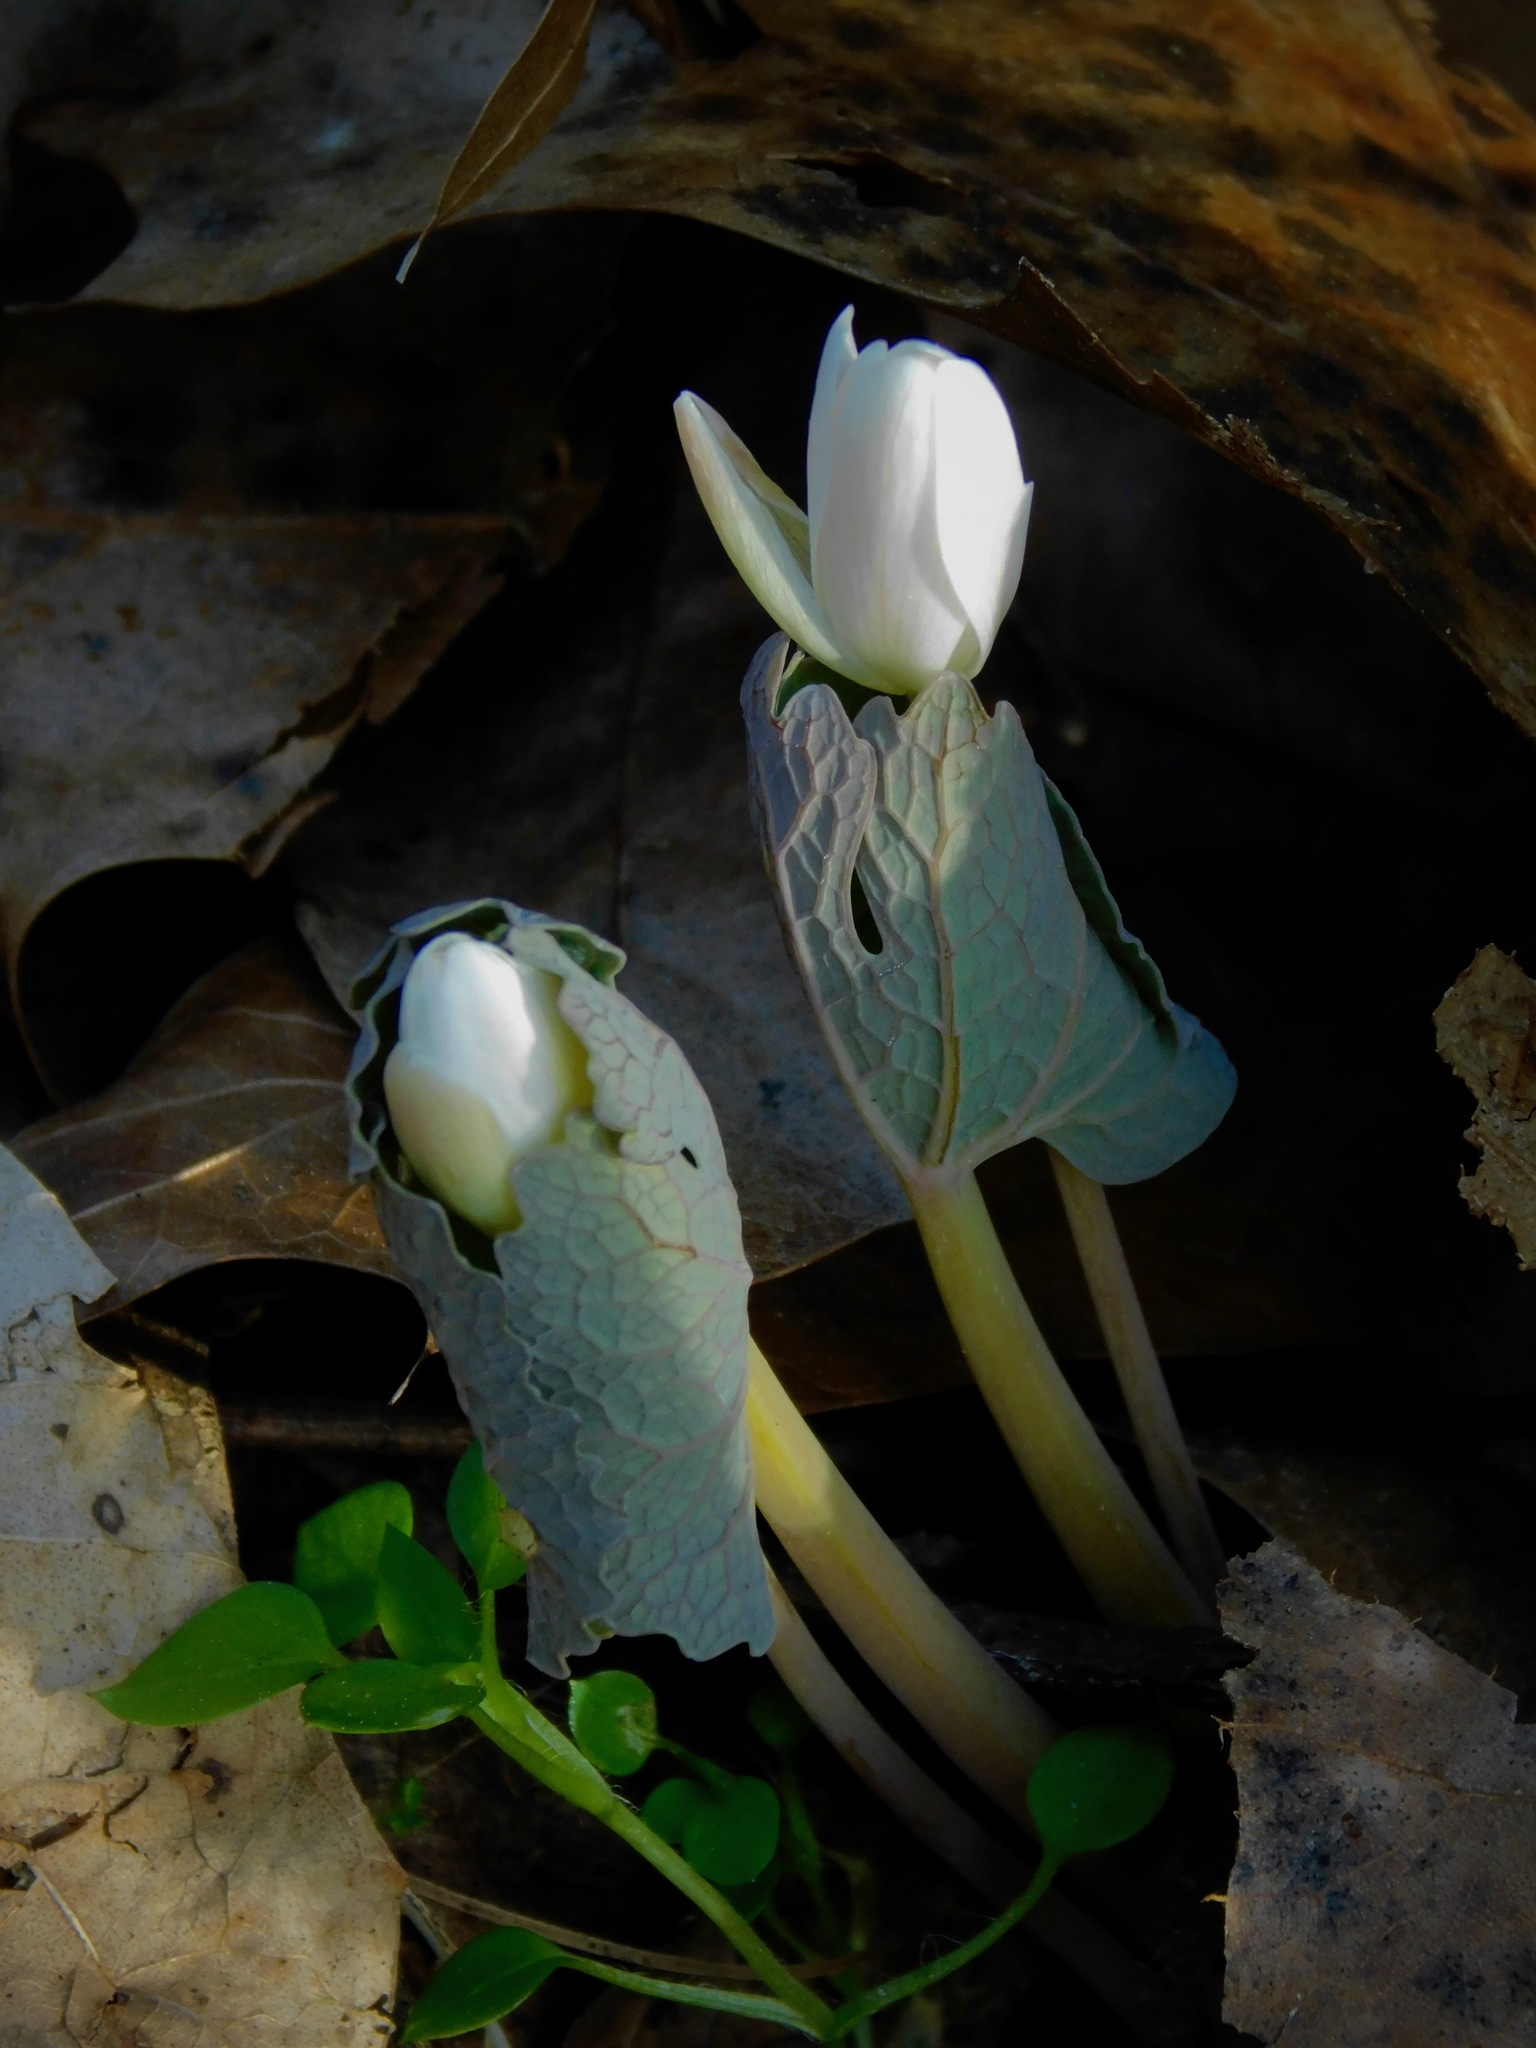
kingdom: Plantae
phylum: Tracheophyta
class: Magnoliopsida
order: Ranunculales
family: Papaveraceae
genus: Sanguinaria
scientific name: Sanguinaria canadensis
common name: Bloodroot
